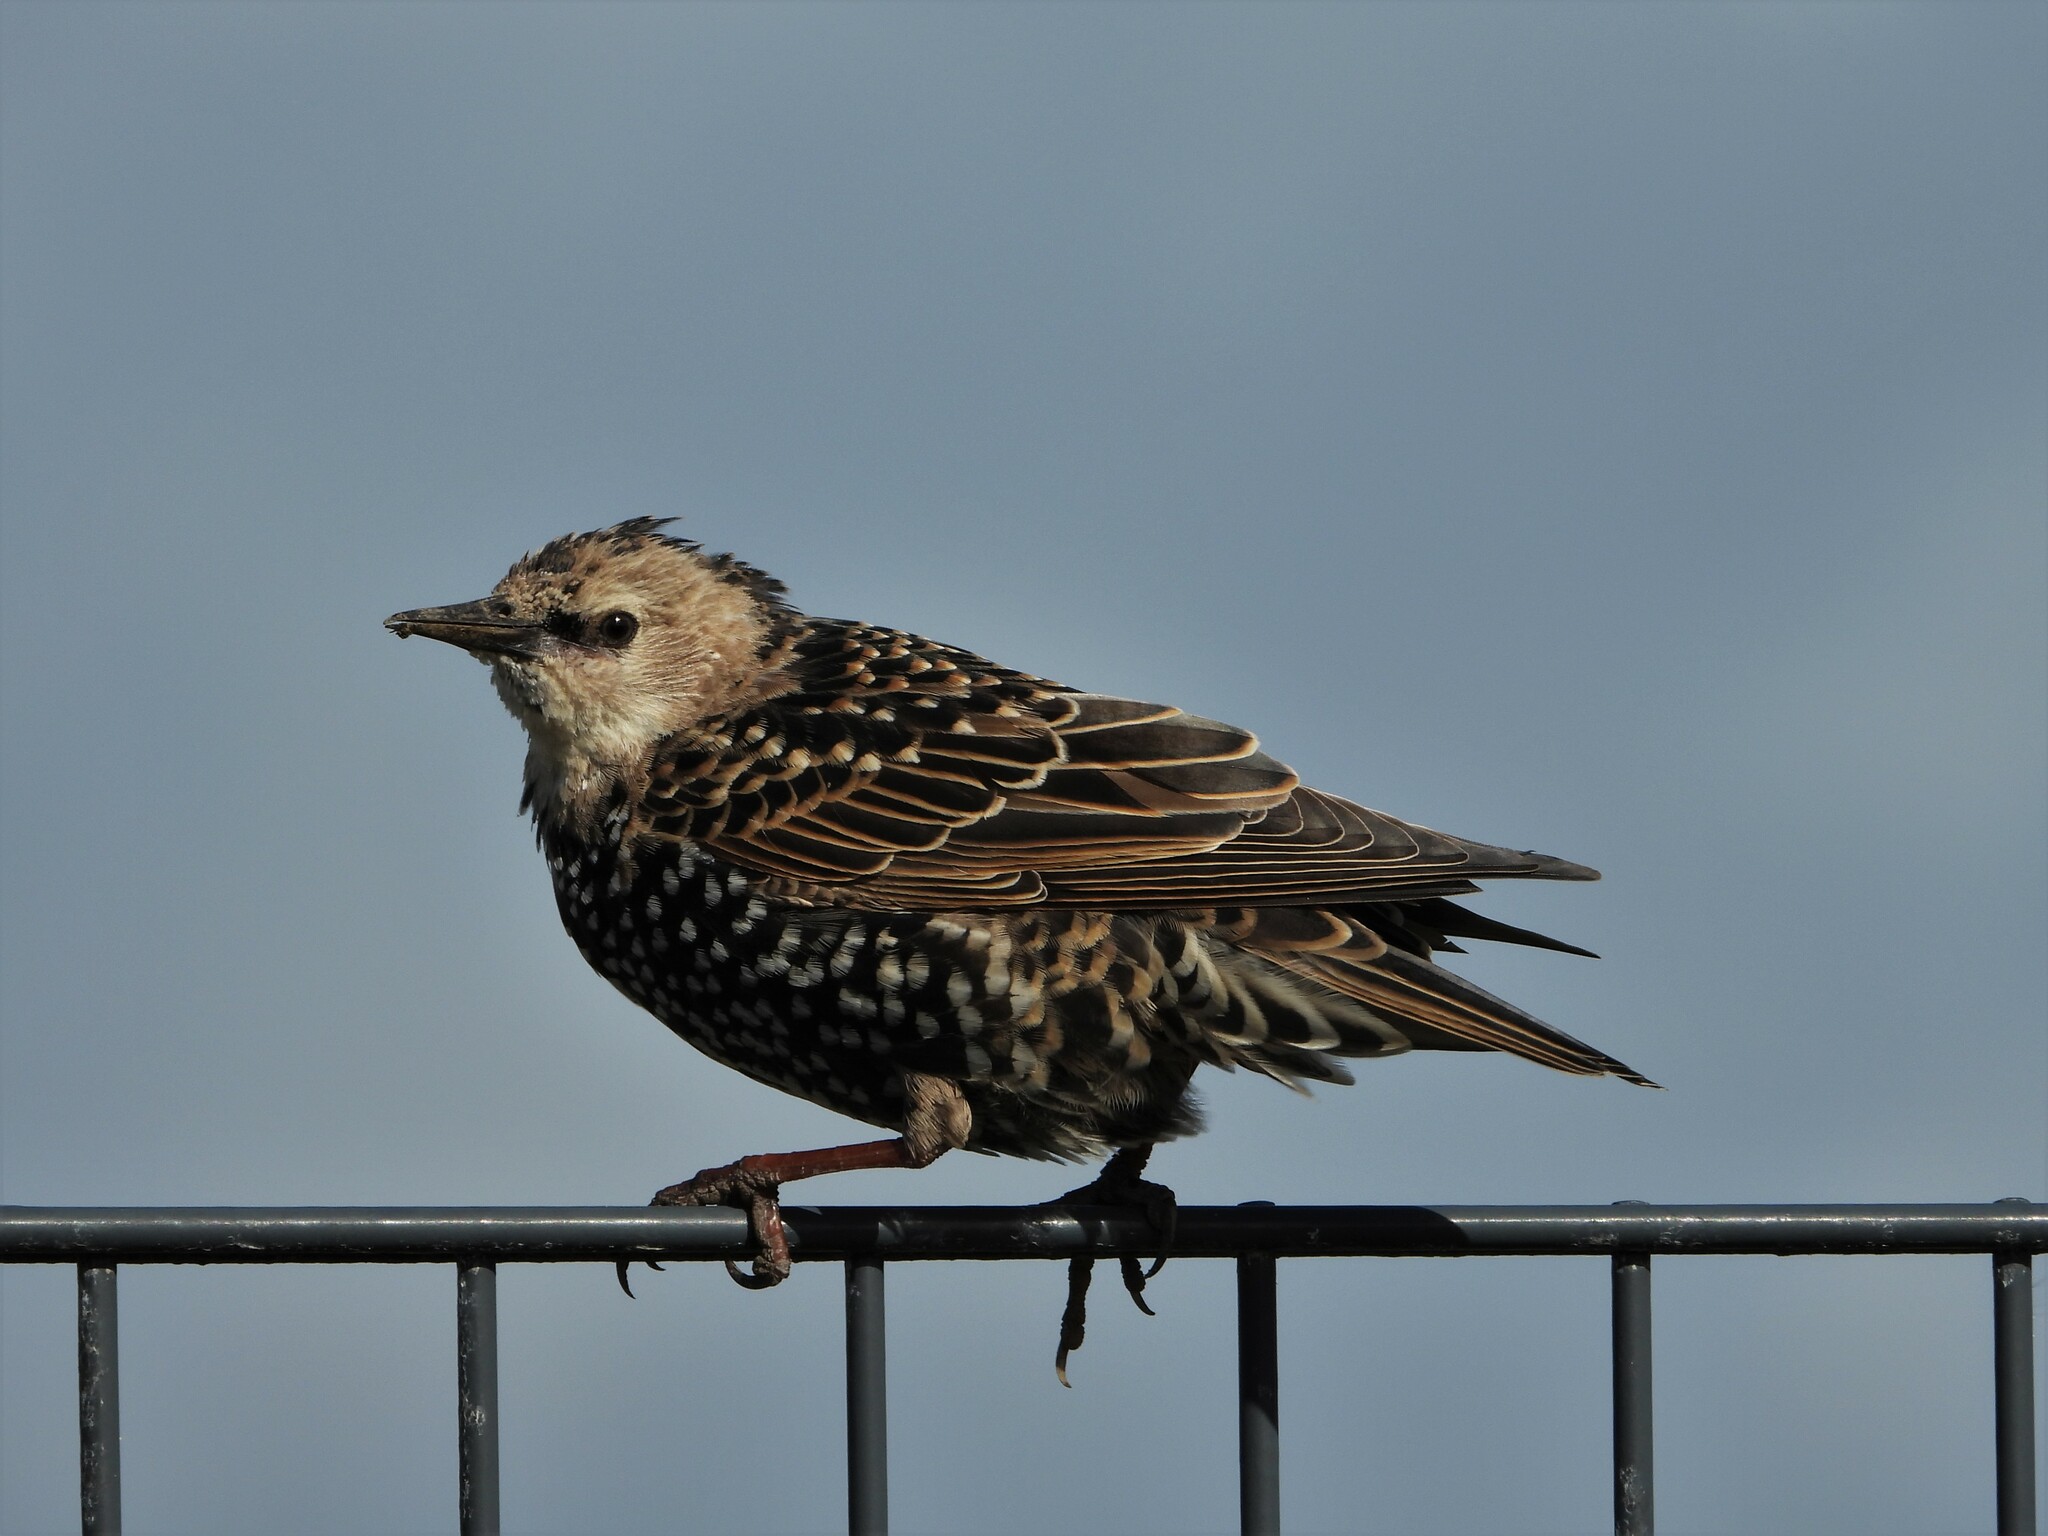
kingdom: Animalia
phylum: Chordata
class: Aves
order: Passeriformes
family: Sturnidae
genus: Sturnus
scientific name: Sturnus vulgaris
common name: Common starling
